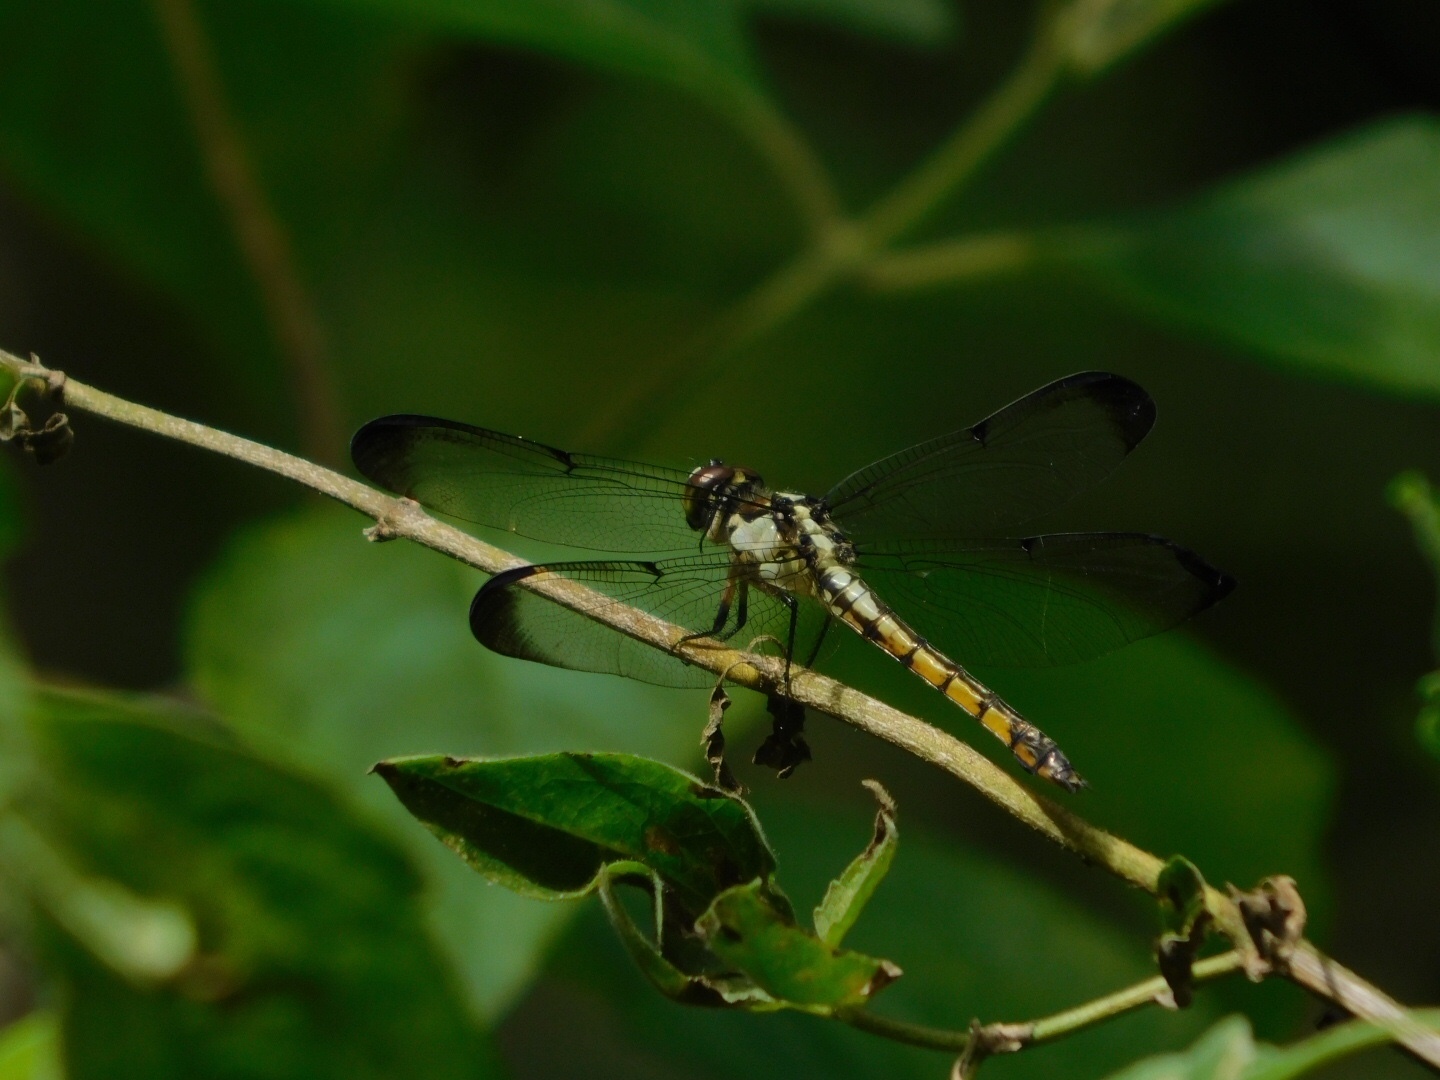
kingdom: Animalia
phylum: Arthropoda
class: Insecta
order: Odonata
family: Libellulidae
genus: Libellula
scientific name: Libellula vibrans
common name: Great blue skimmer
